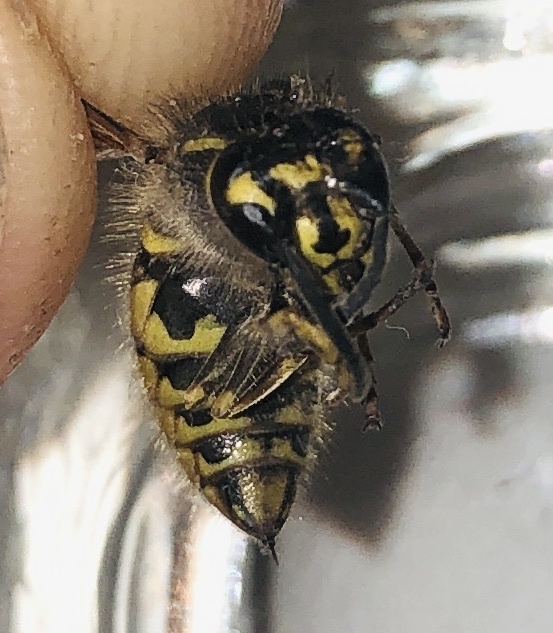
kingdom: Animalia
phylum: Arthropoda
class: Insecta
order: Hymenoptera
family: Vespidae
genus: Vespula
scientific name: Vespula vulgaris
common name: Common wasp
